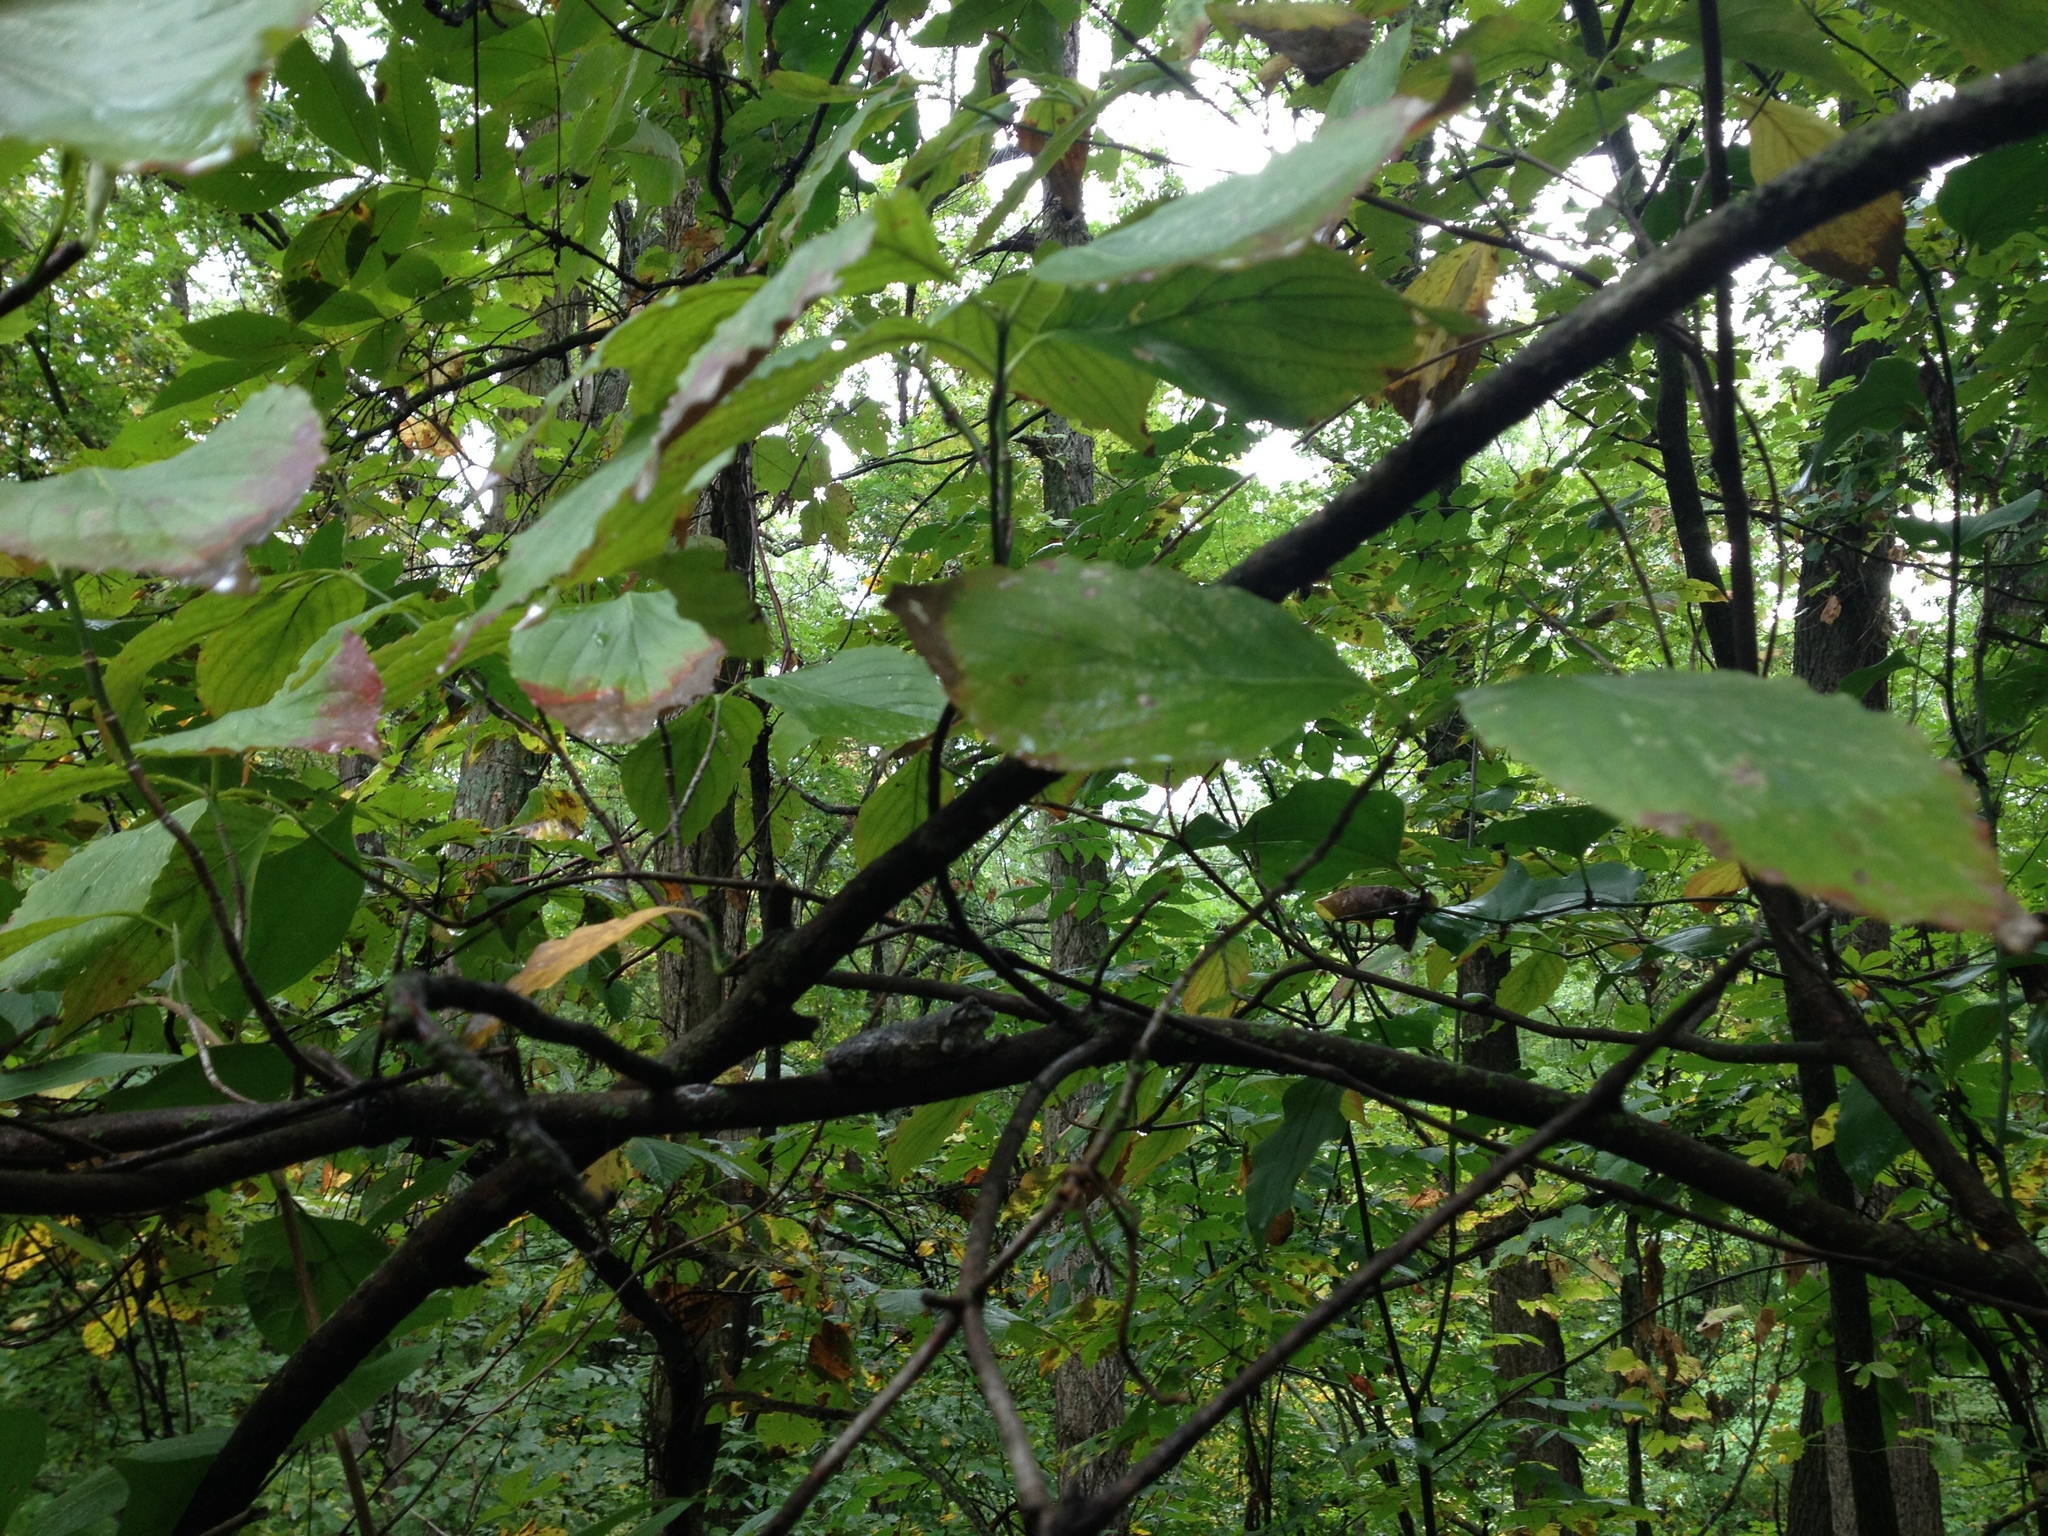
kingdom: Animalia
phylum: Chordata
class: Amphibia
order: Anura
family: Hylidae
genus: Hyla
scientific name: Hyla
